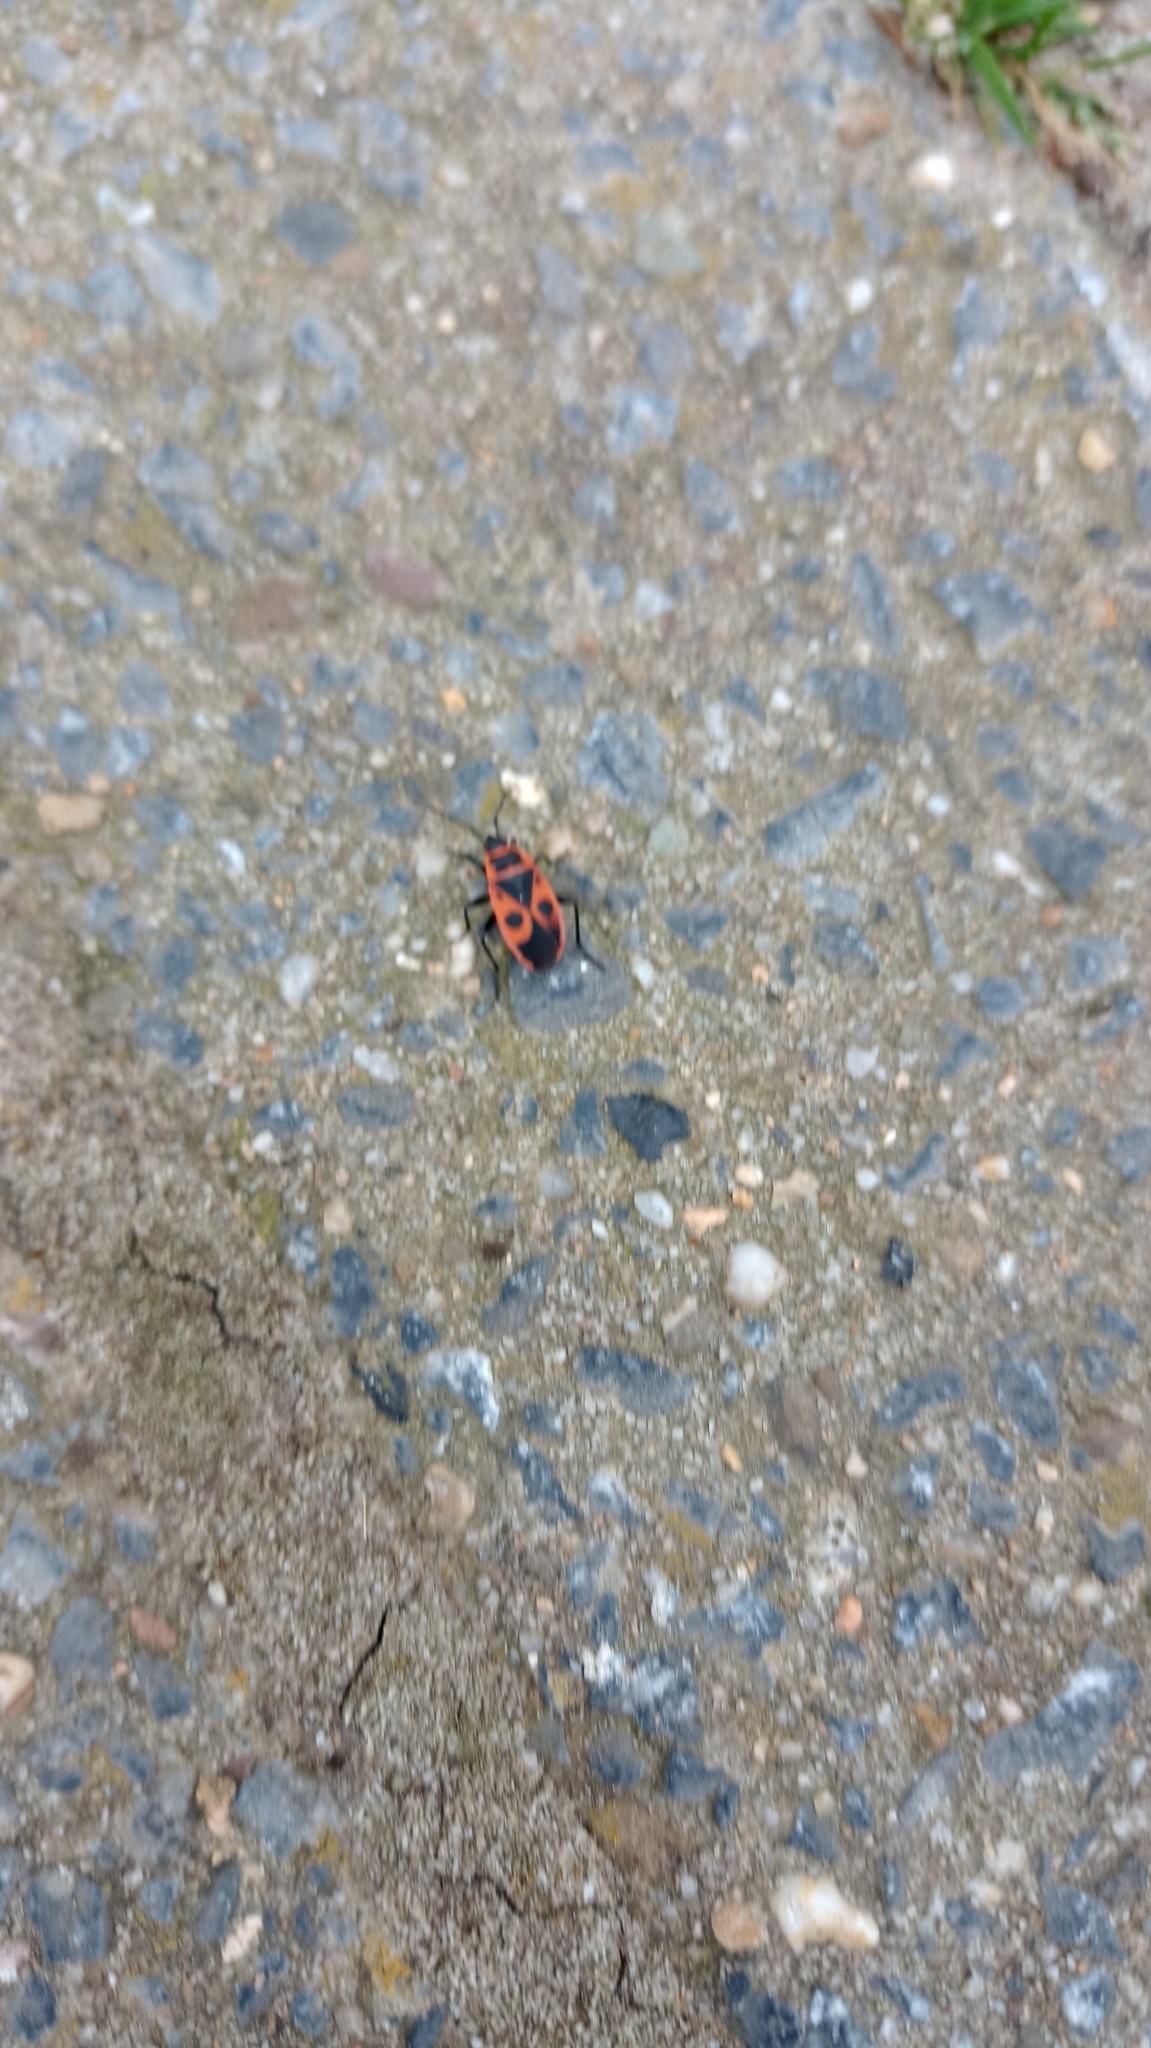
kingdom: Animalia
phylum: Arthropoda
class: Insecta
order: Hemiptera
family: Pyrrhocoridae
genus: Pyrrhocoris
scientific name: Pyrrhocoris apterus
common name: Firebug
